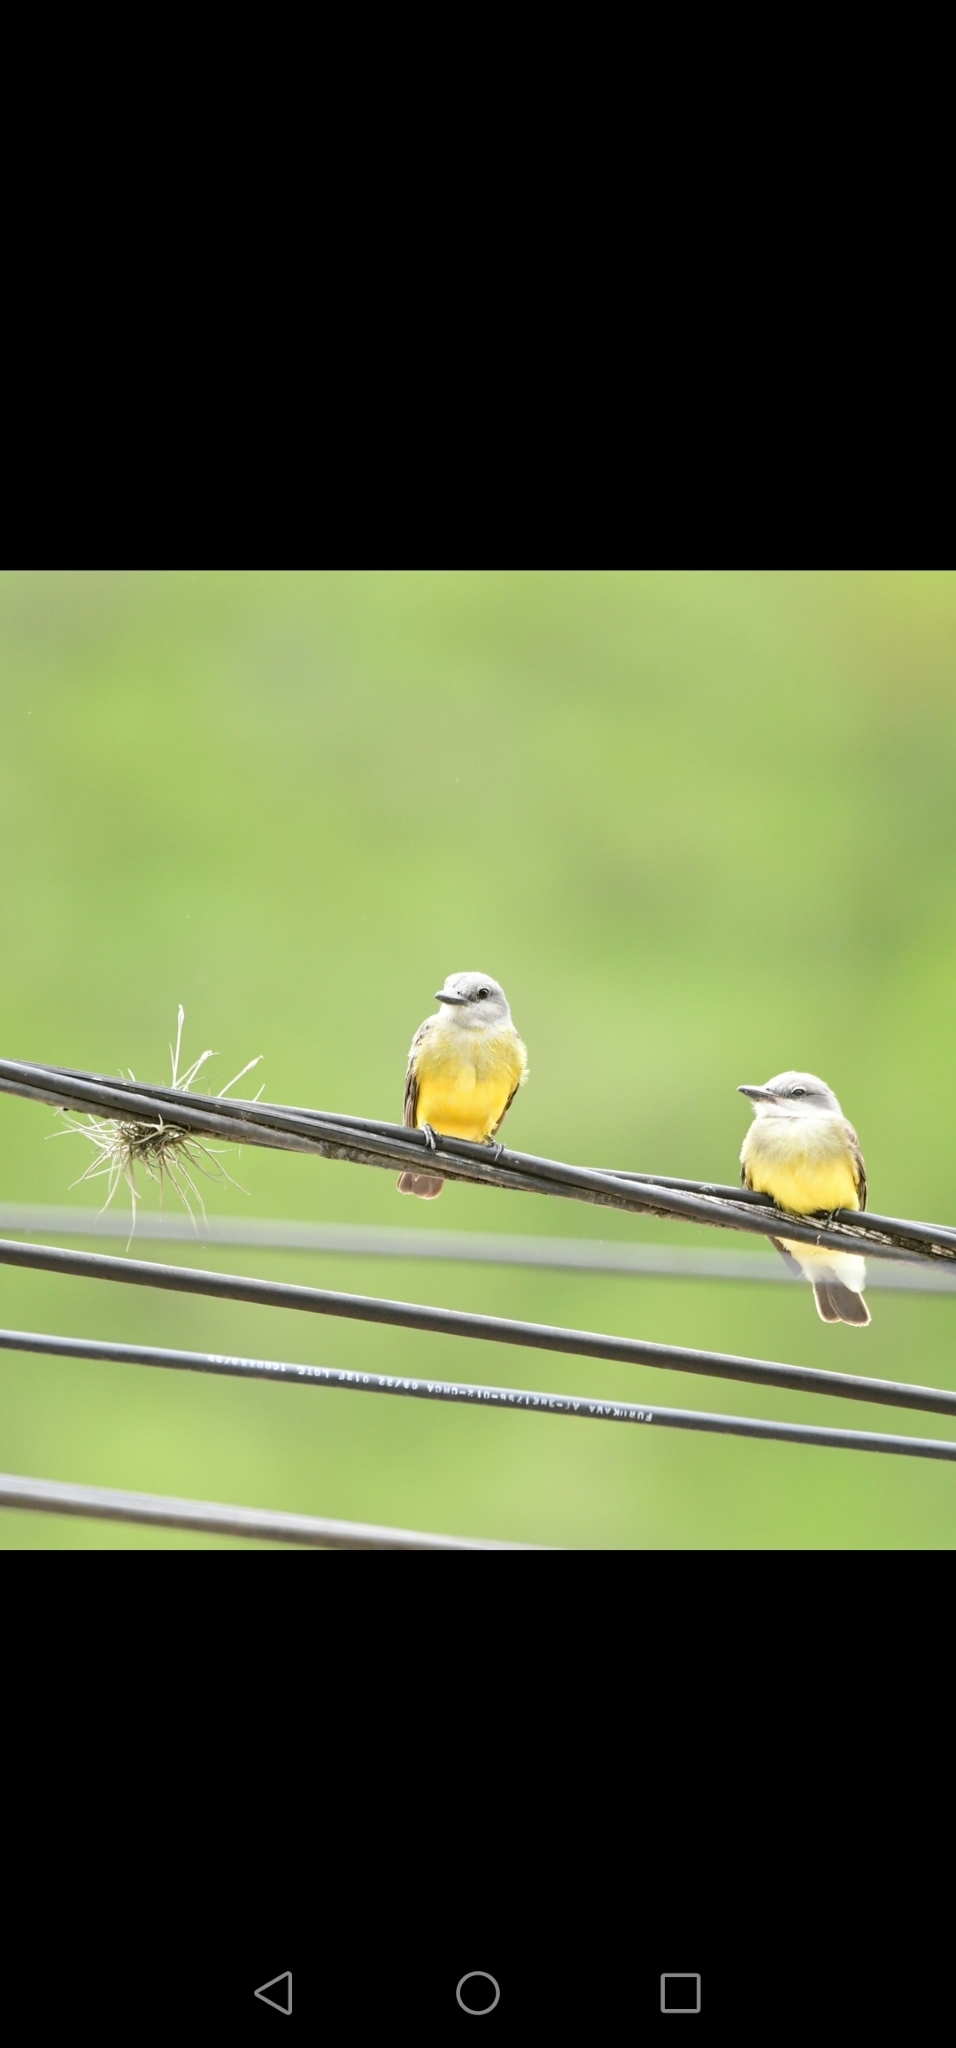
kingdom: Animalia
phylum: Chordata
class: Aves
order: Passeriformes
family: Tyrannidae
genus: Tyrannus
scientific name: Tyrannus melancholicus
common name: Tropical kingbird
